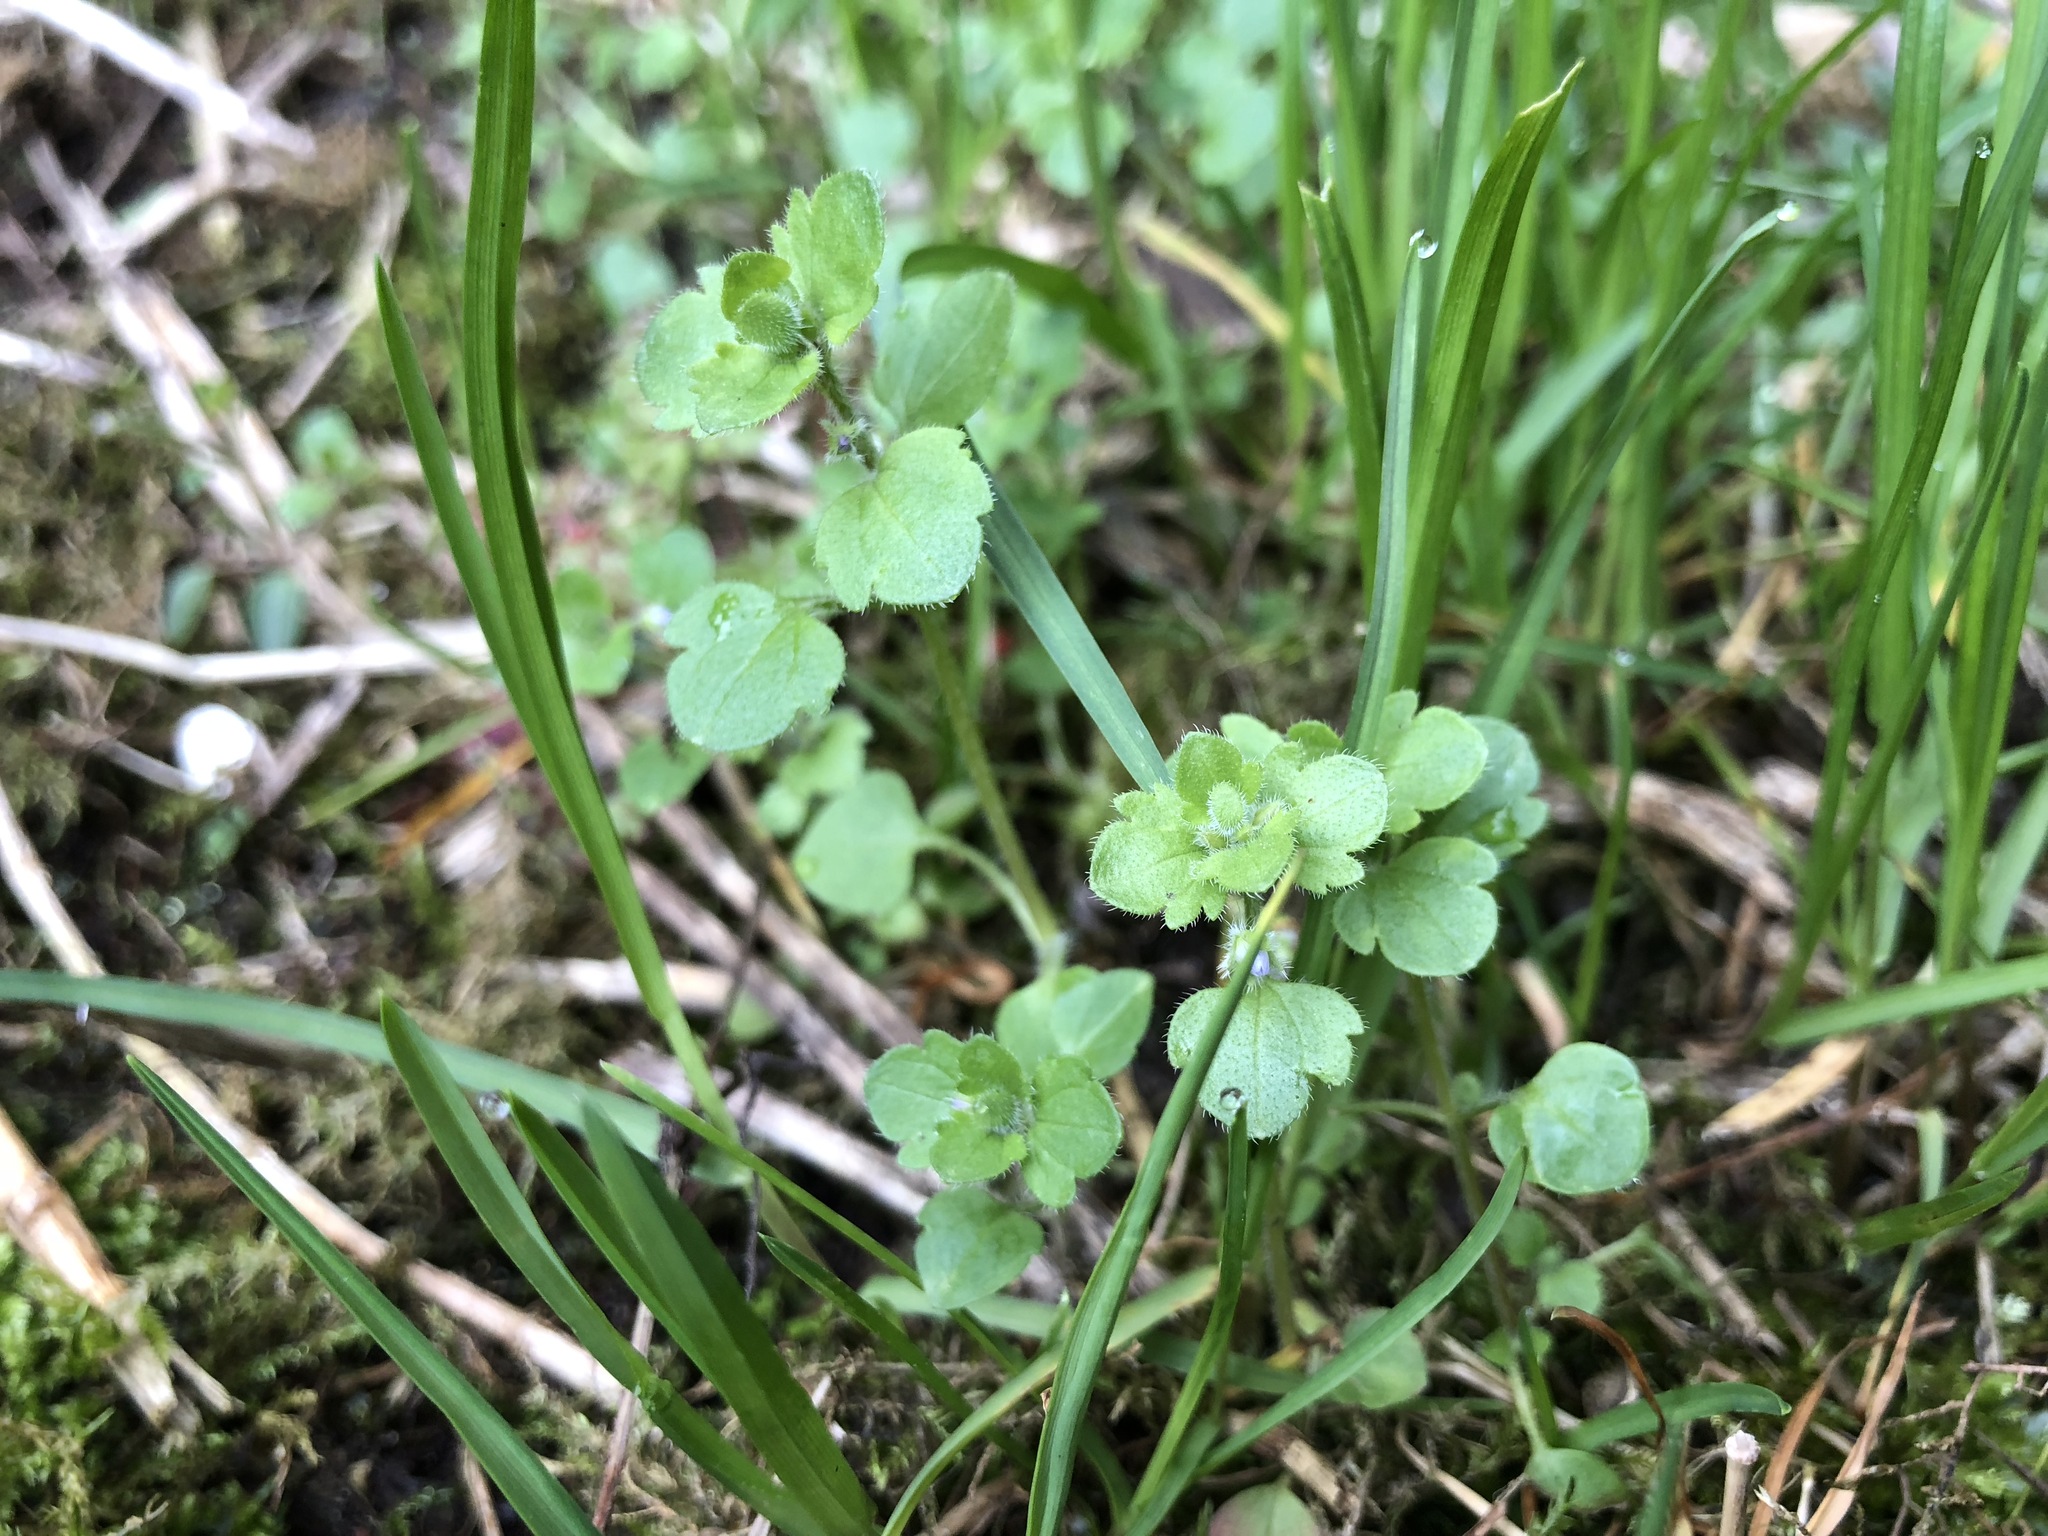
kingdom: Plantae
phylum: Tracheophyta
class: Magnoliopsida
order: Lamiales
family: Plantaginaceae
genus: Veronica
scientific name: Veronica hederifolia
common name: Ivy-leaved speedwell
